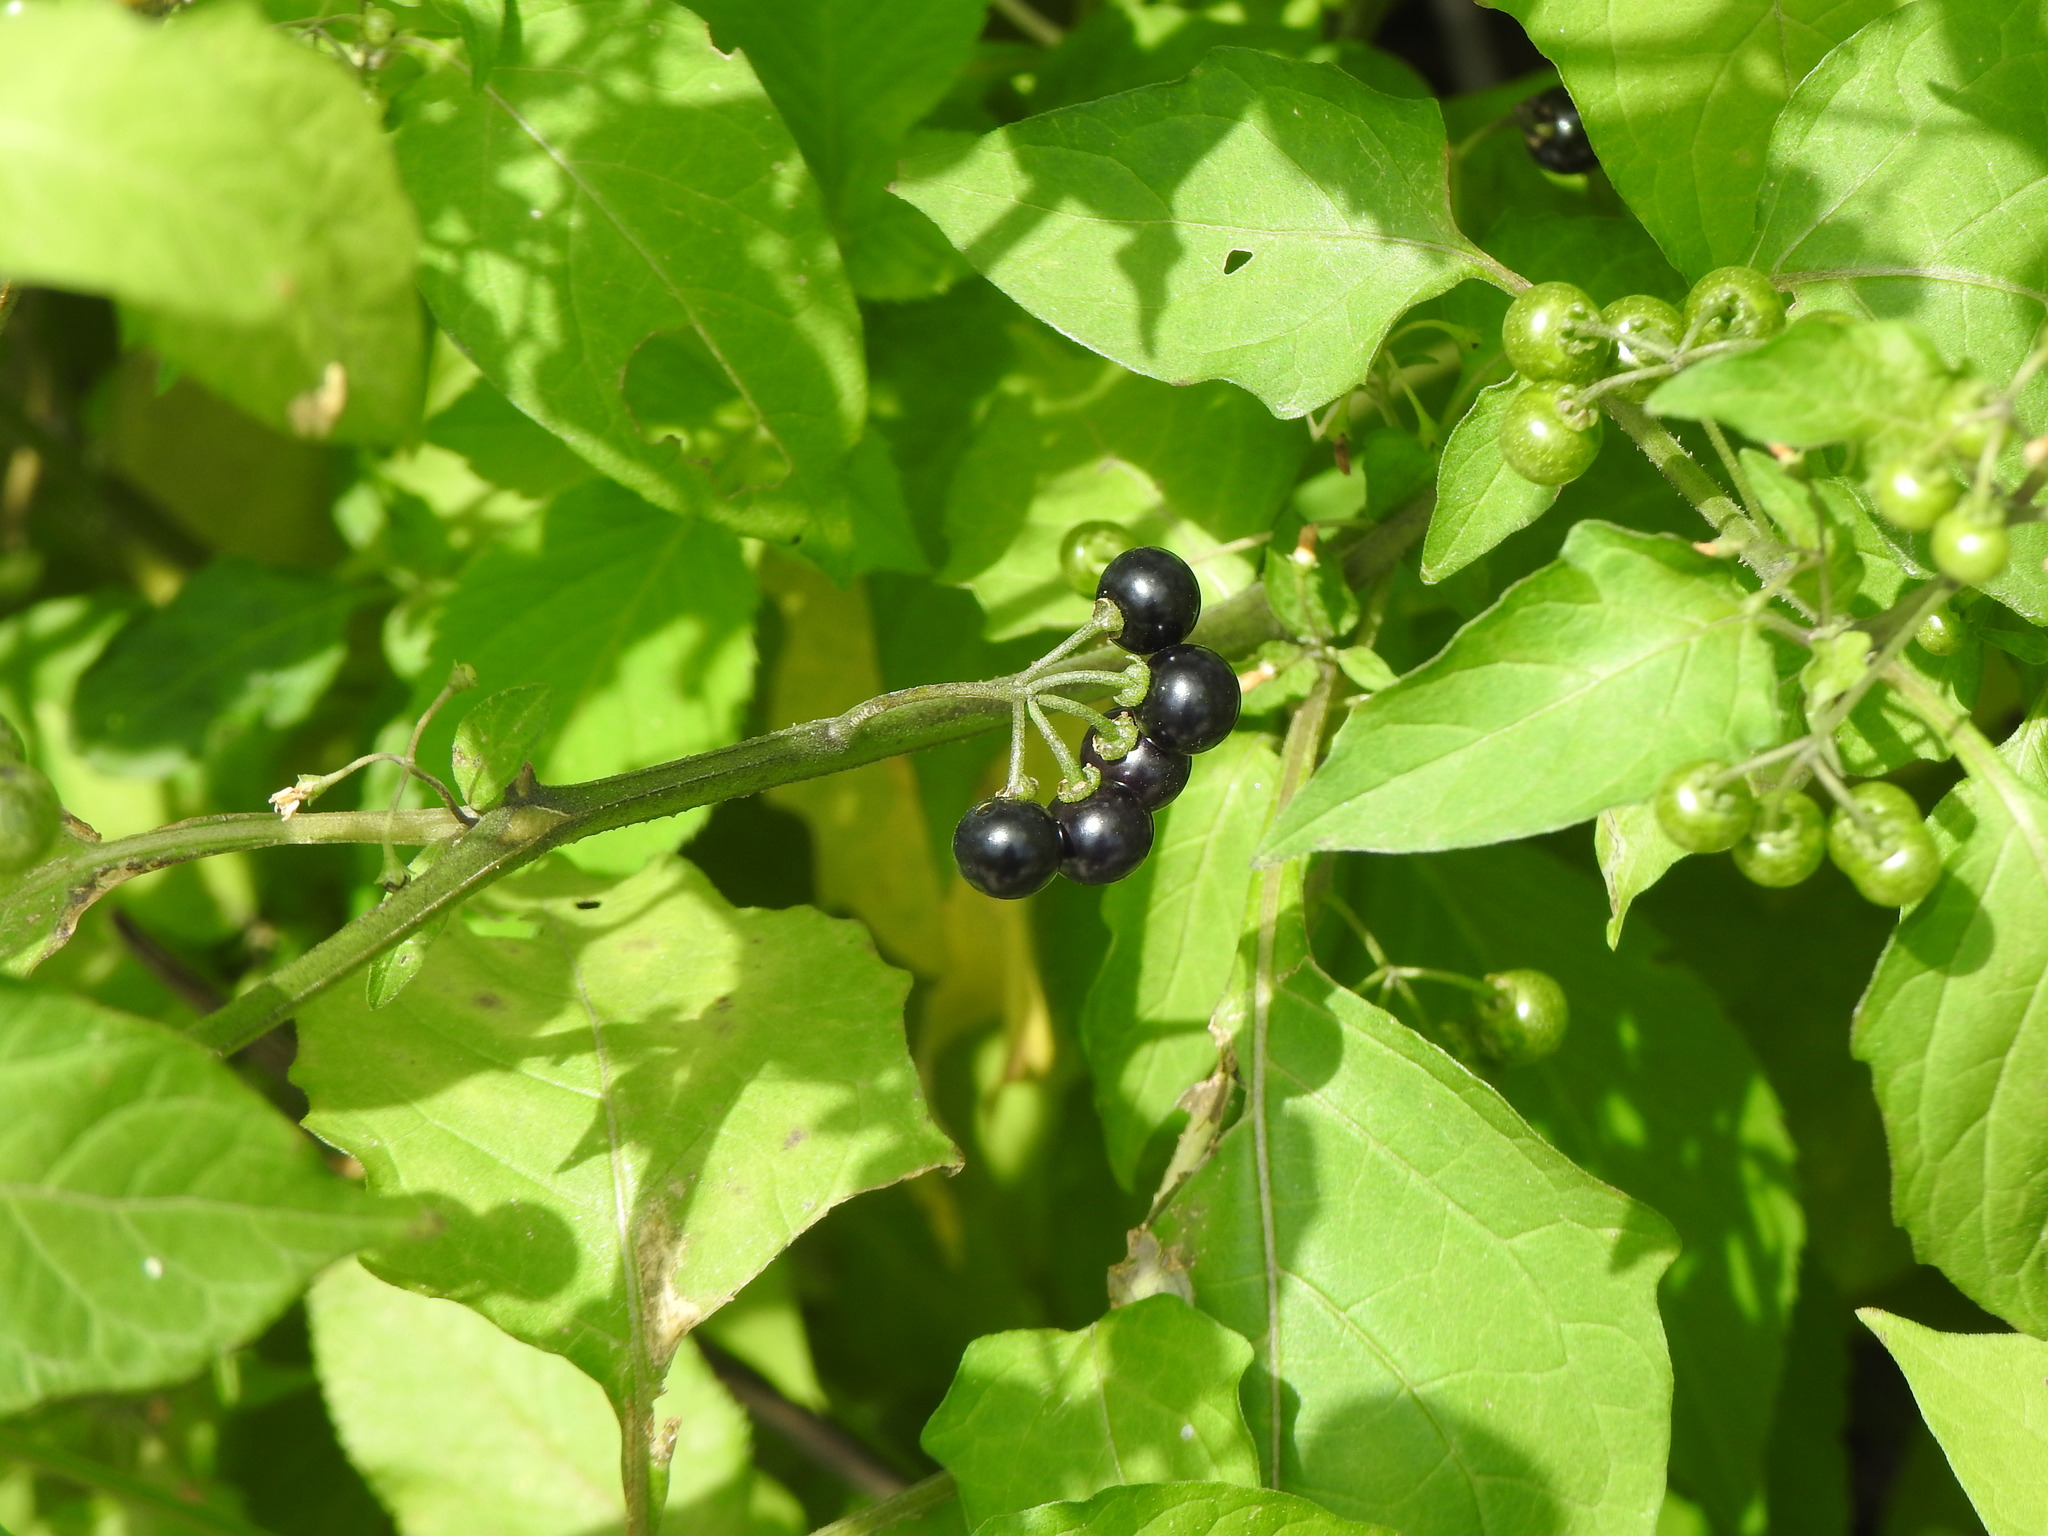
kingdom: Plantae
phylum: Tracheophyta
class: Magnoliopsida
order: Solanales
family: Solanaceae
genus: Solanum
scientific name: Solanum americanum
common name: American black nightshade
